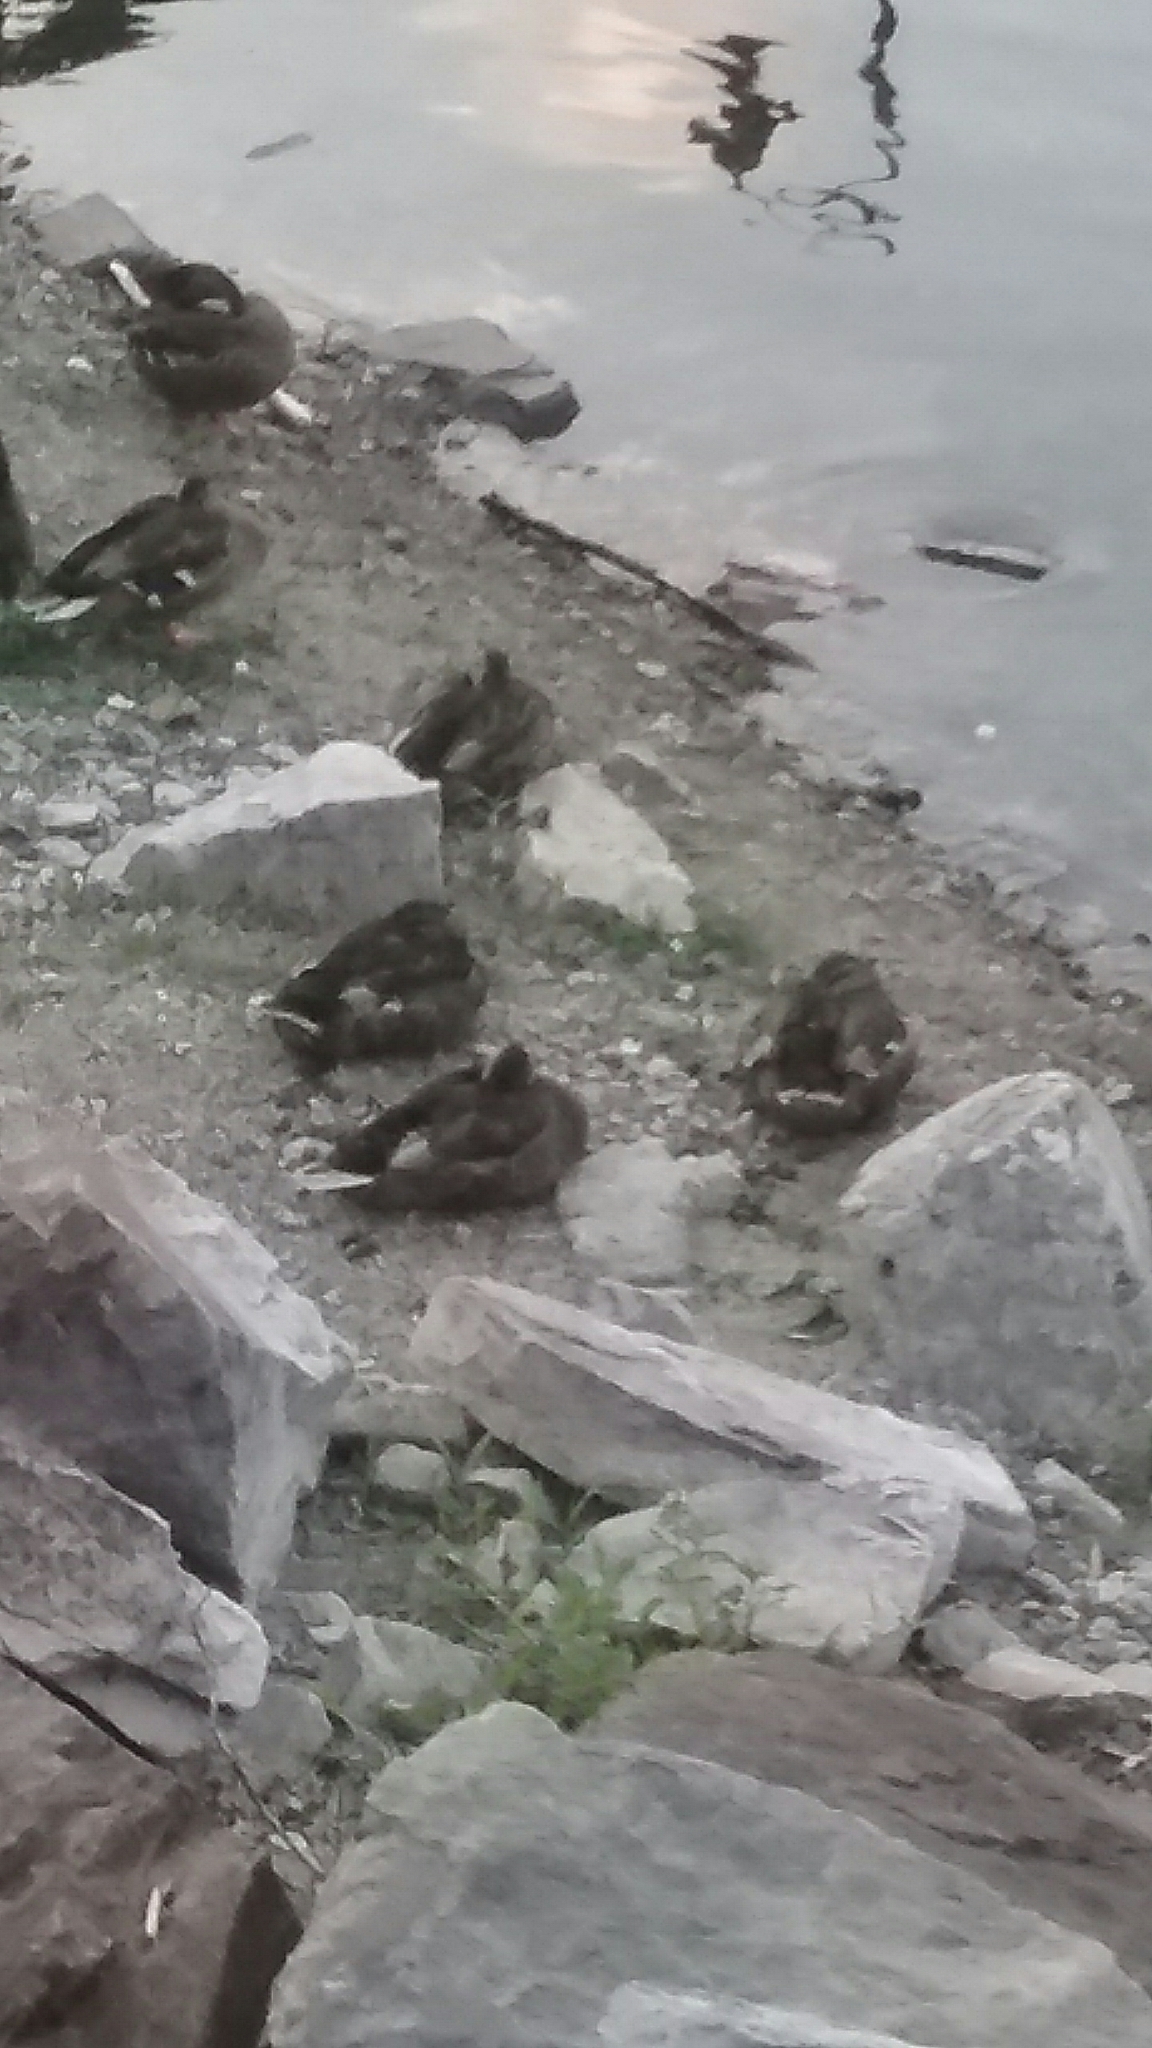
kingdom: Animalia
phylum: Chordata
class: Aves
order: Anseriformes
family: Anatidae
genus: Anas
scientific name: Anas platyrhynchos
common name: Mallard
